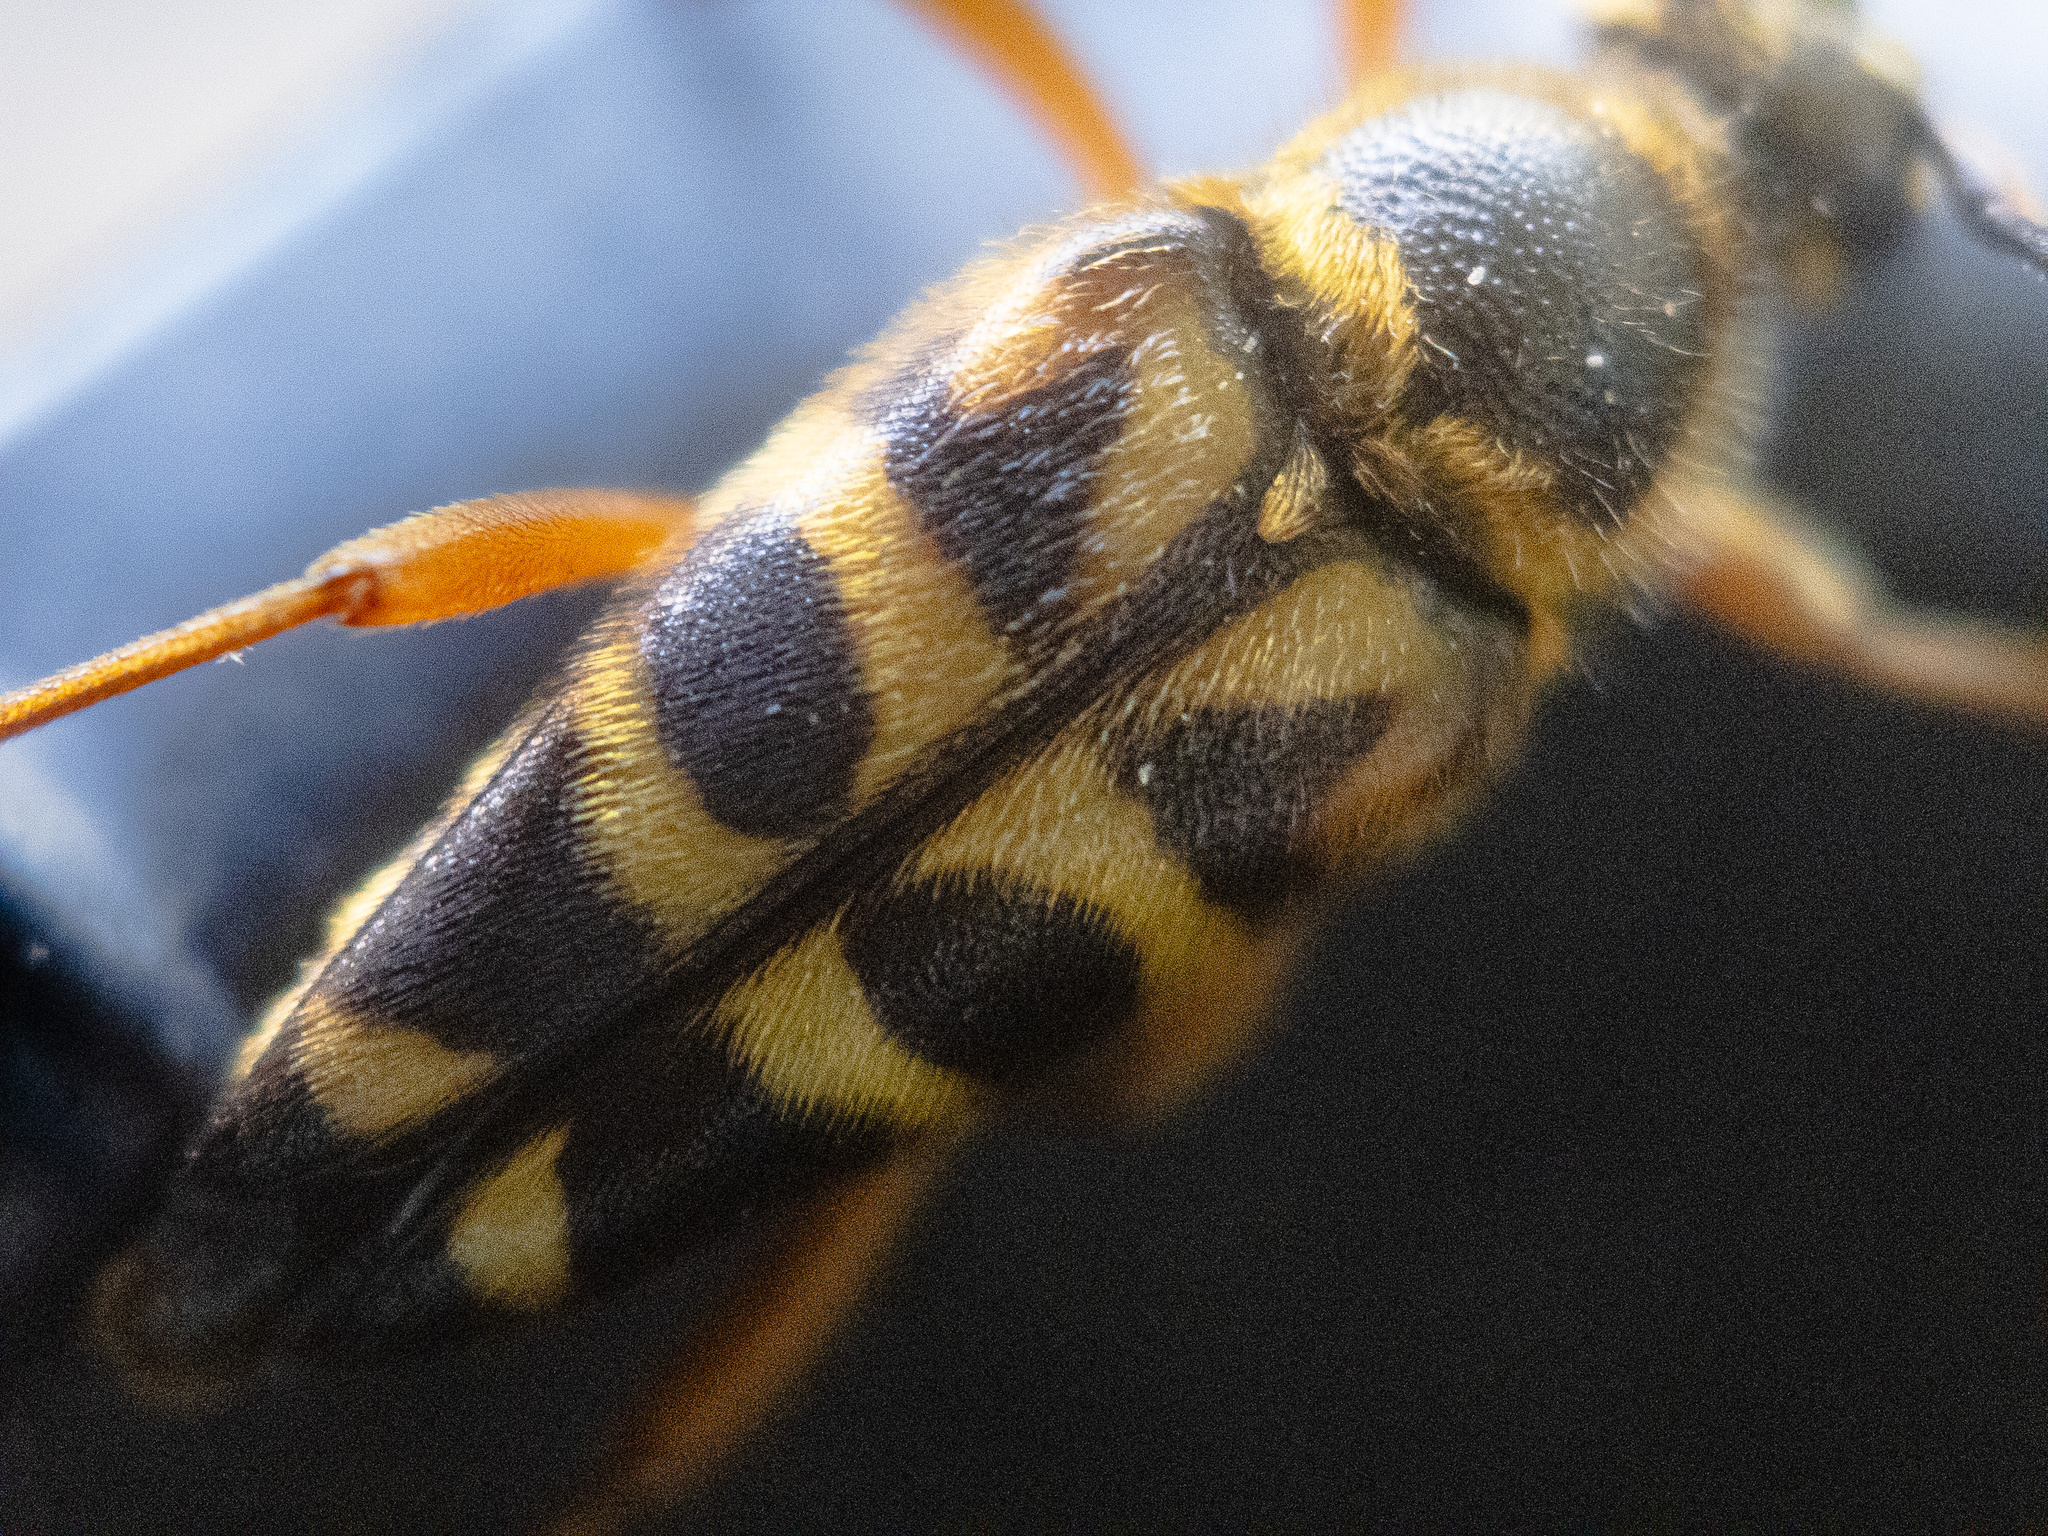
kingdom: Animalia
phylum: Arthropoda
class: Insecta
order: Coleoptera
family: Cerambycidae
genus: Typocerus
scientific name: Typocerus zebra
